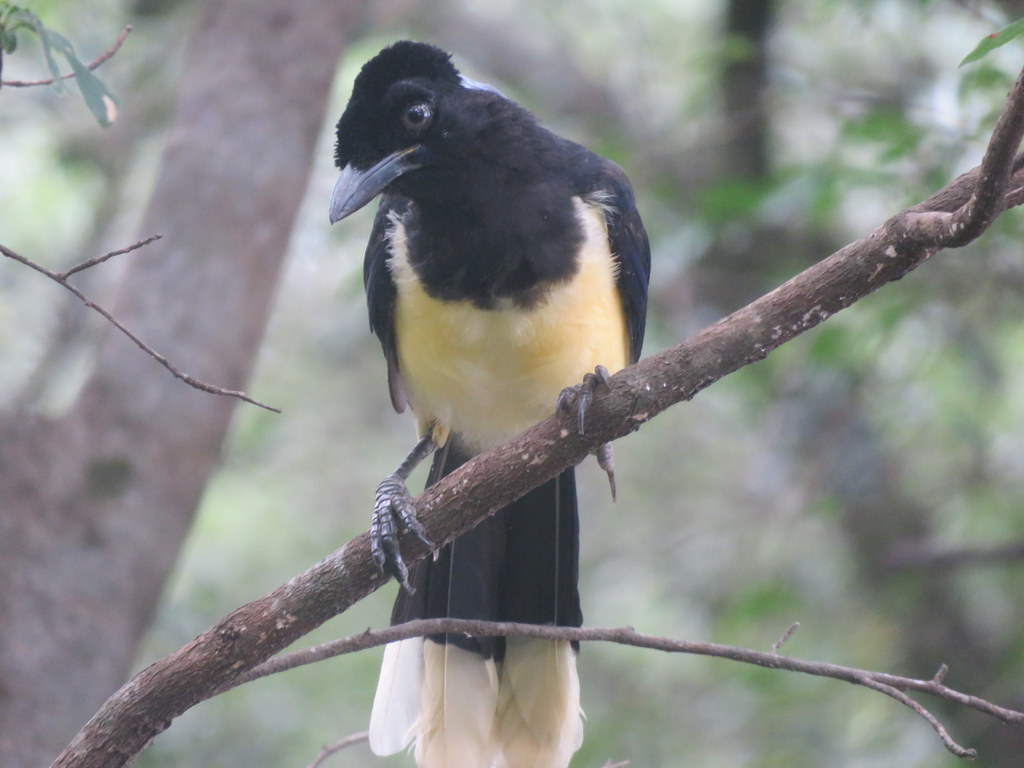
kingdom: Animalia
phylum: Chordata
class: Aves
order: Passeriformes
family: Corvidae
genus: Cyanocorax
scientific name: Cyanocorax chrysops
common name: Plush-crested jay
